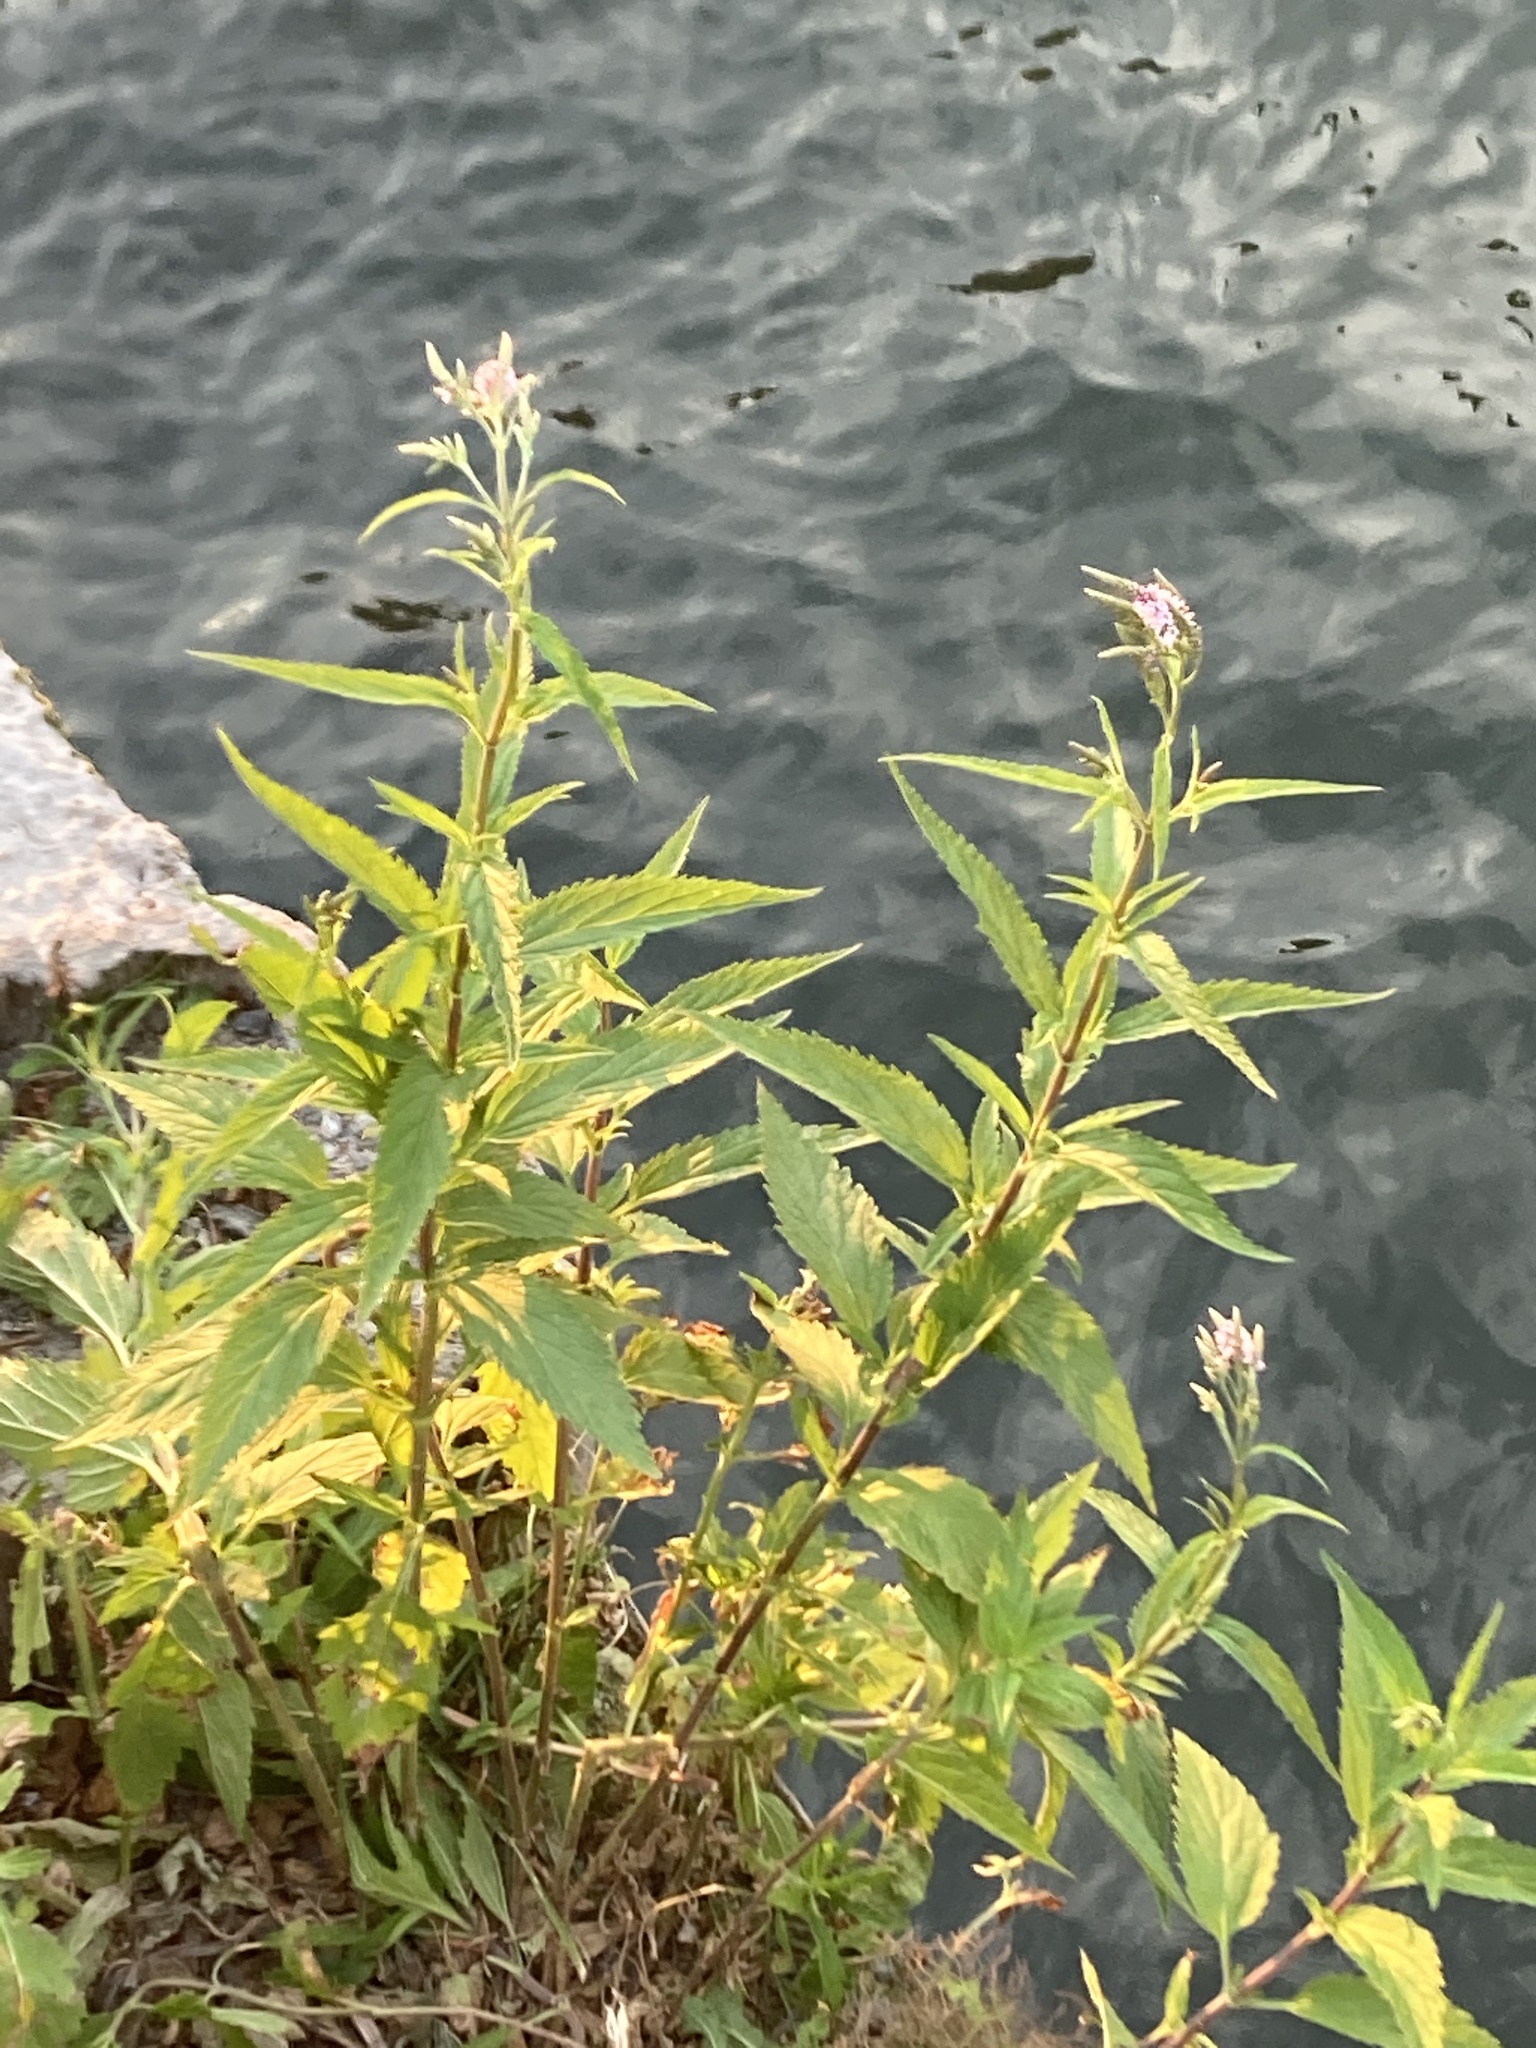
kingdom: Plantae
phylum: Tracheophyta
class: Magnoliopsida
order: Lamiales
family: Verbenaceae
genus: Verbena
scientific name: Verbena hastata
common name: American blue vervain
